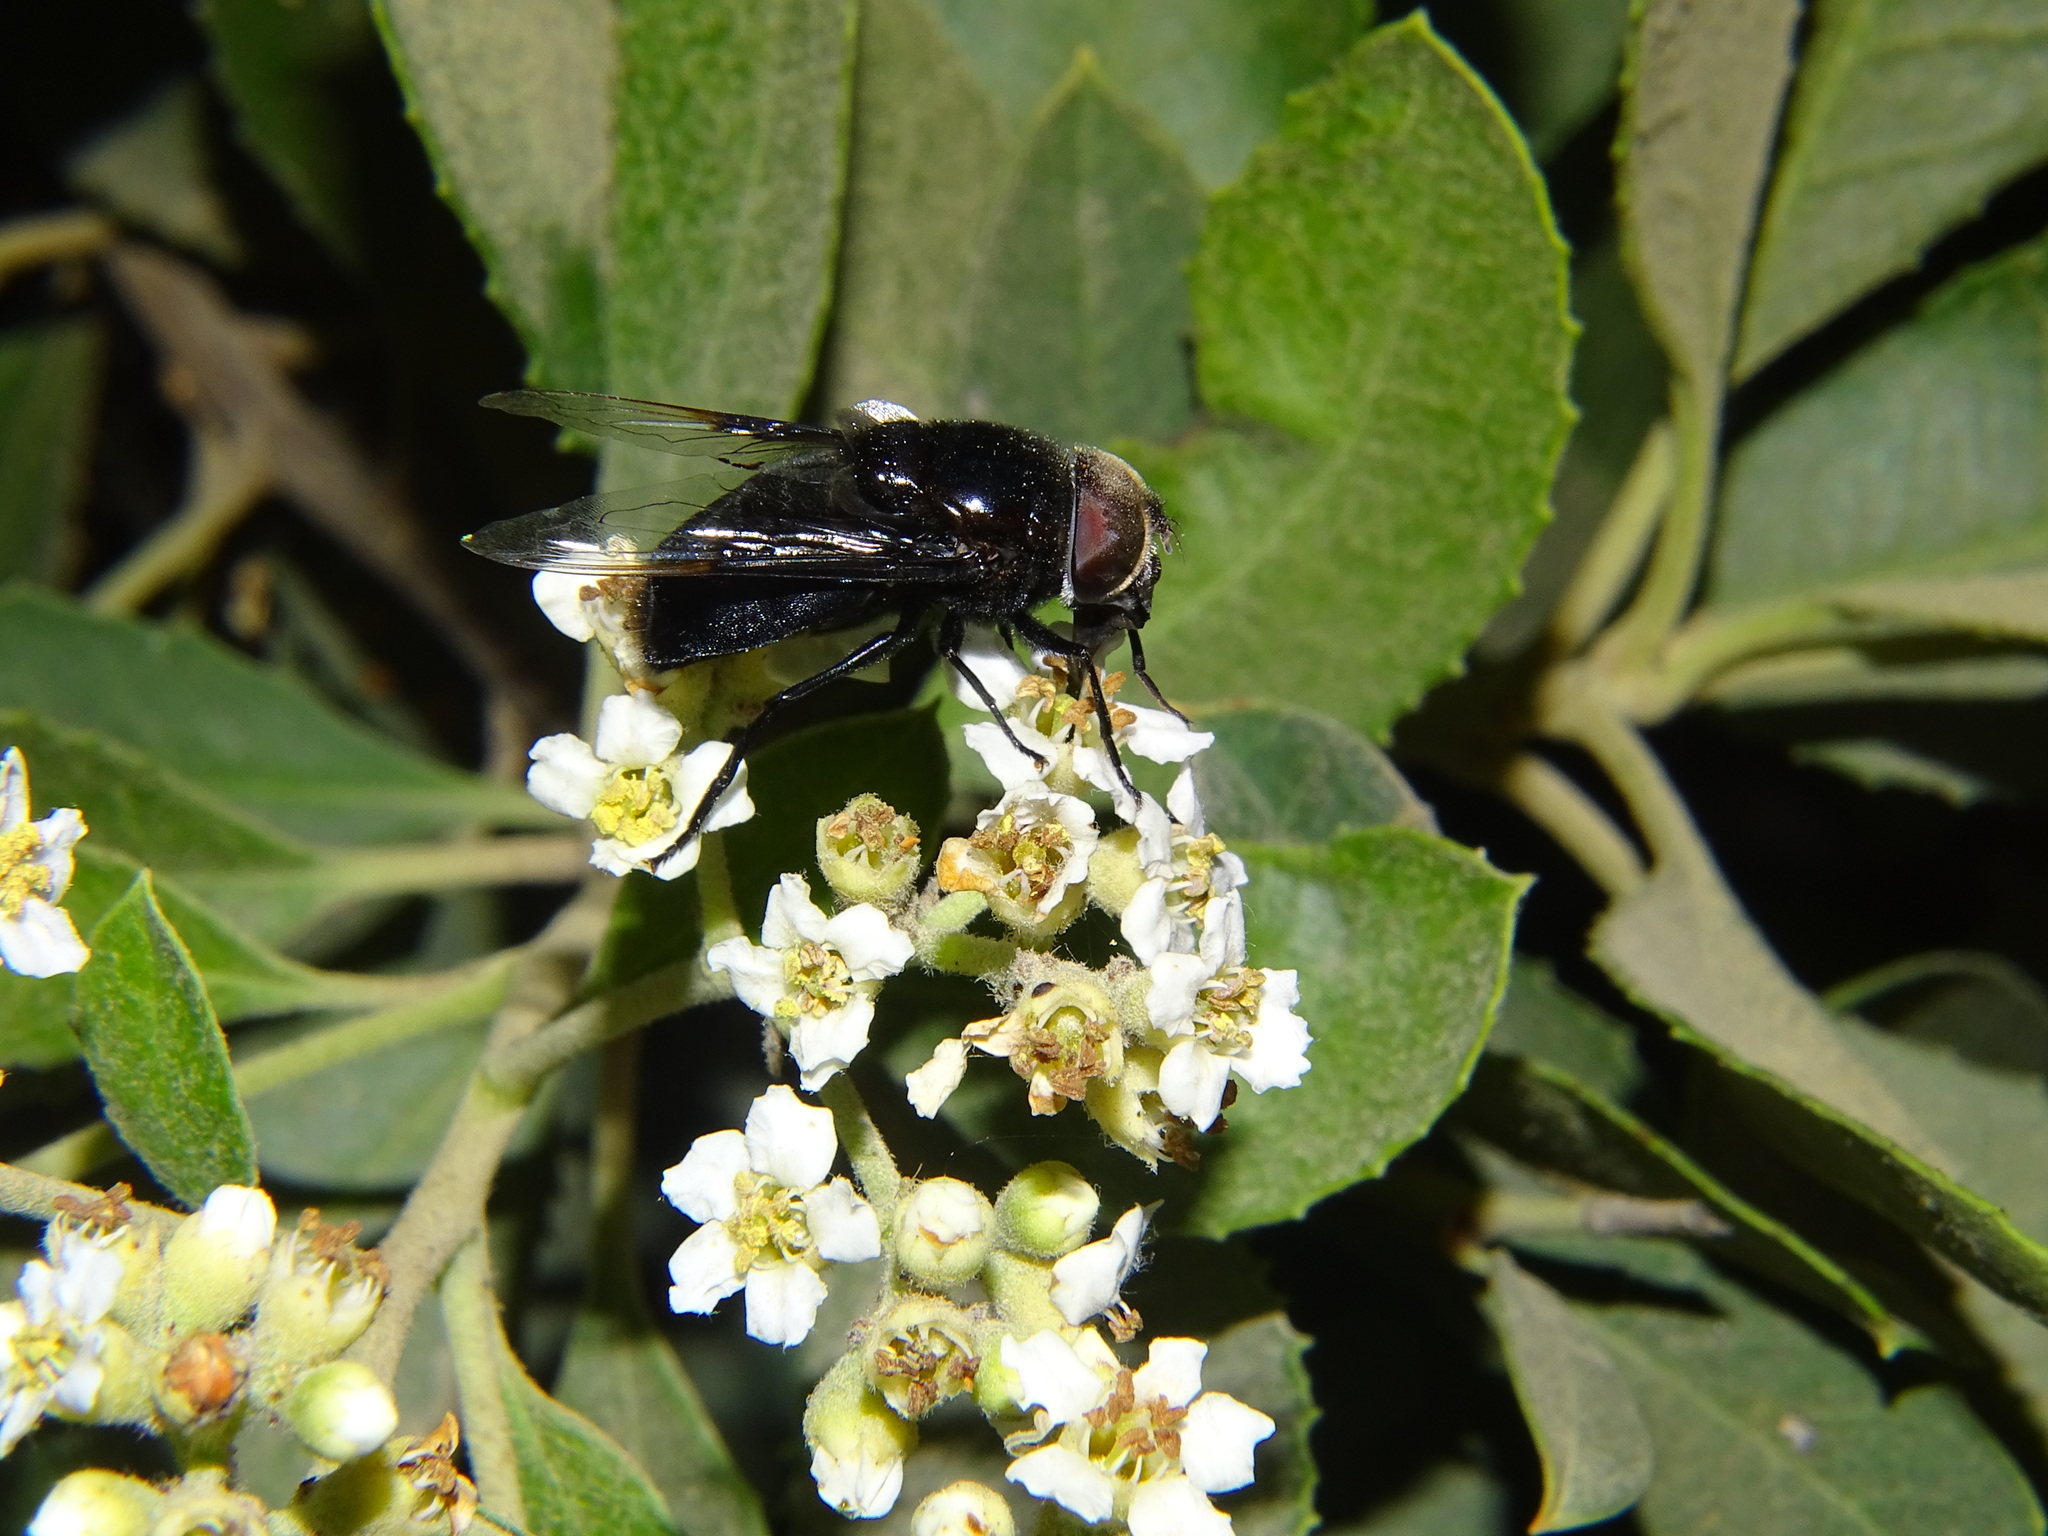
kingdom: Animalia
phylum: Arthropoda
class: Insecta
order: Diptera
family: Syrphidae
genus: Copestylum
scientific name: Copestylum mexicanum
